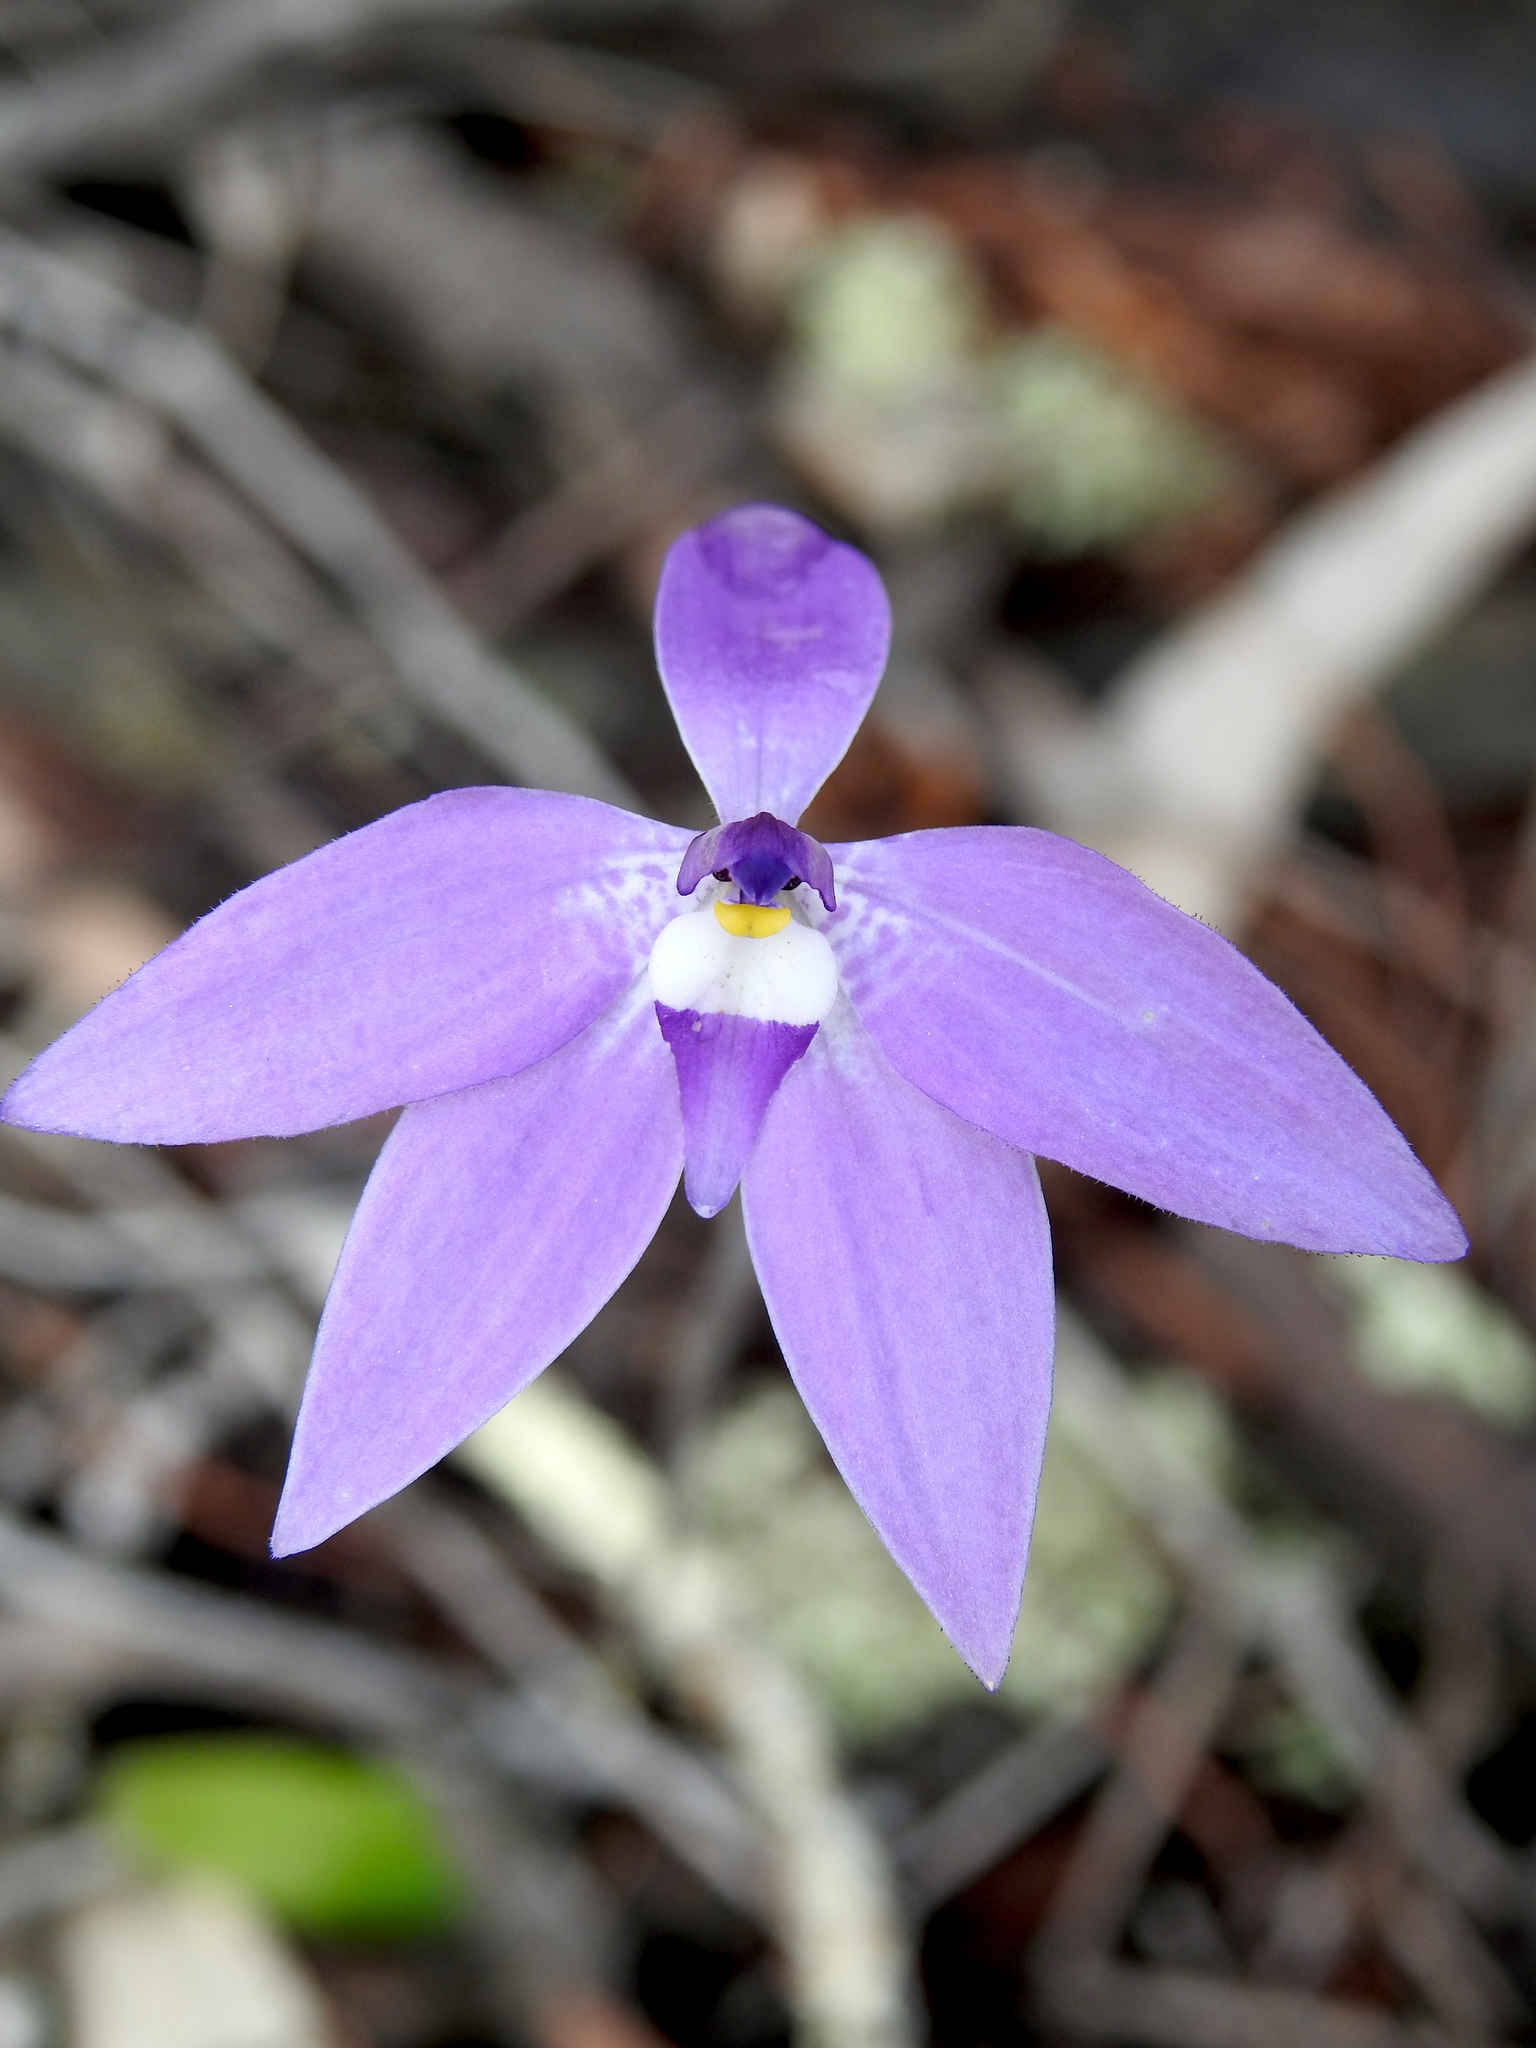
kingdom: Plantae
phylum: Tracheophyta
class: Liliopsida
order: Asparagales
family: Orchidaceae
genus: Caladenia
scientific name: Caladenia major
